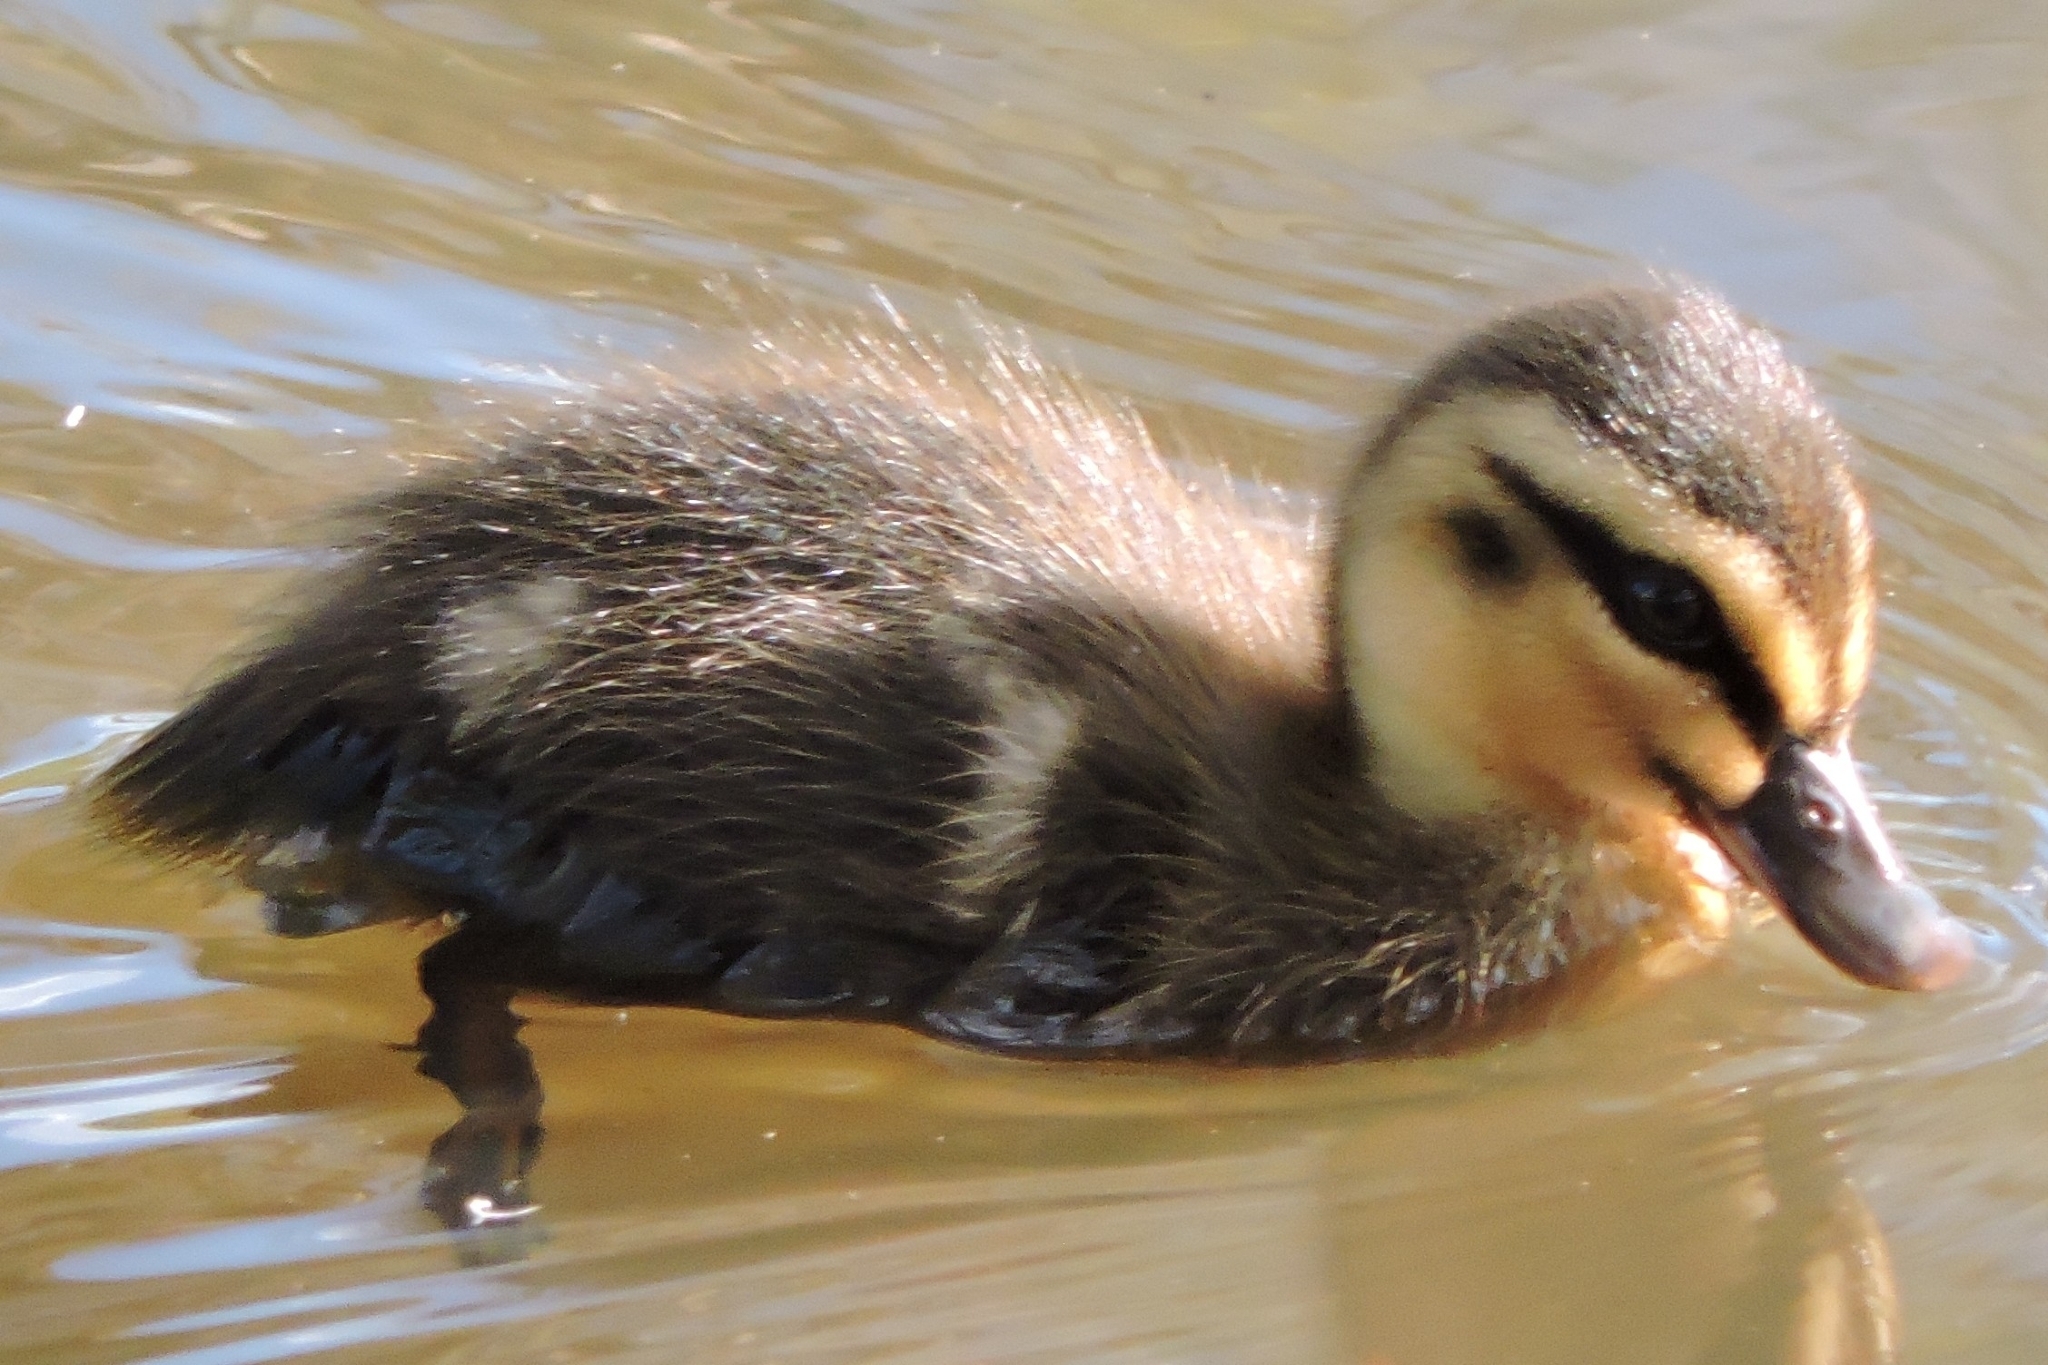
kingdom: Animalia
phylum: Chordata
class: Aves
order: Anseriformes
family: Anatidae
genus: Anas
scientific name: Anas superciliosa
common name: Pacific black duck
